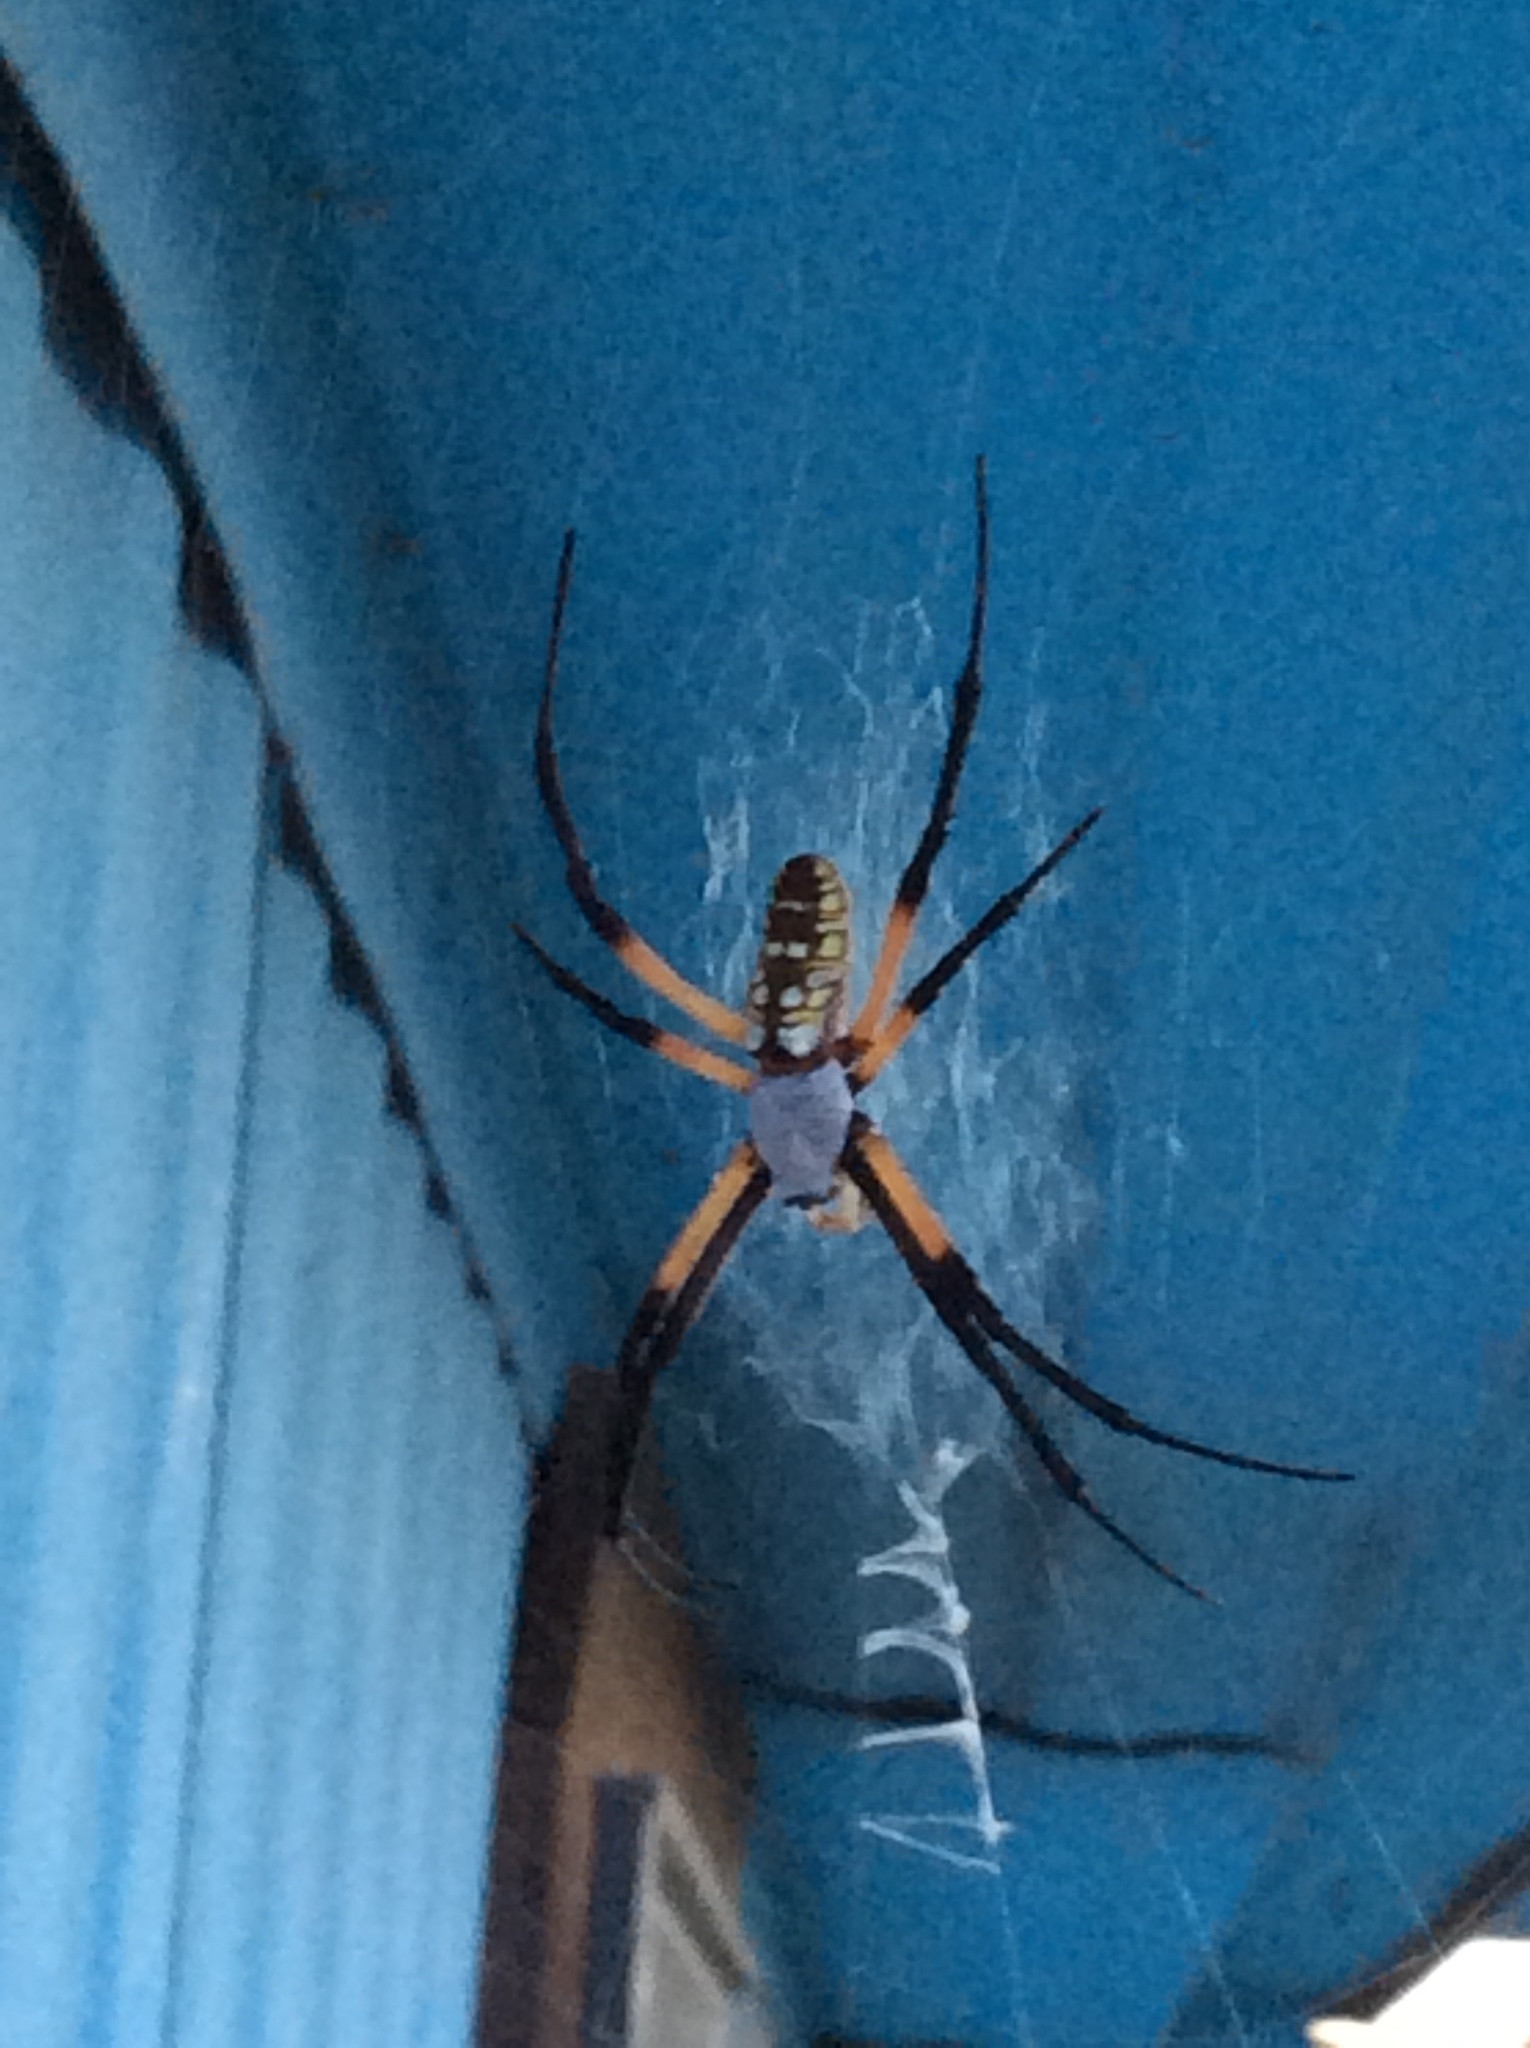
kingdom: Animalia
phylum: Arthropoda
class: Arachnida
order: Araneae
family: Araneidae
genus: Argiope
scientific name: Argiope aurantia
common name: Orb weavers
